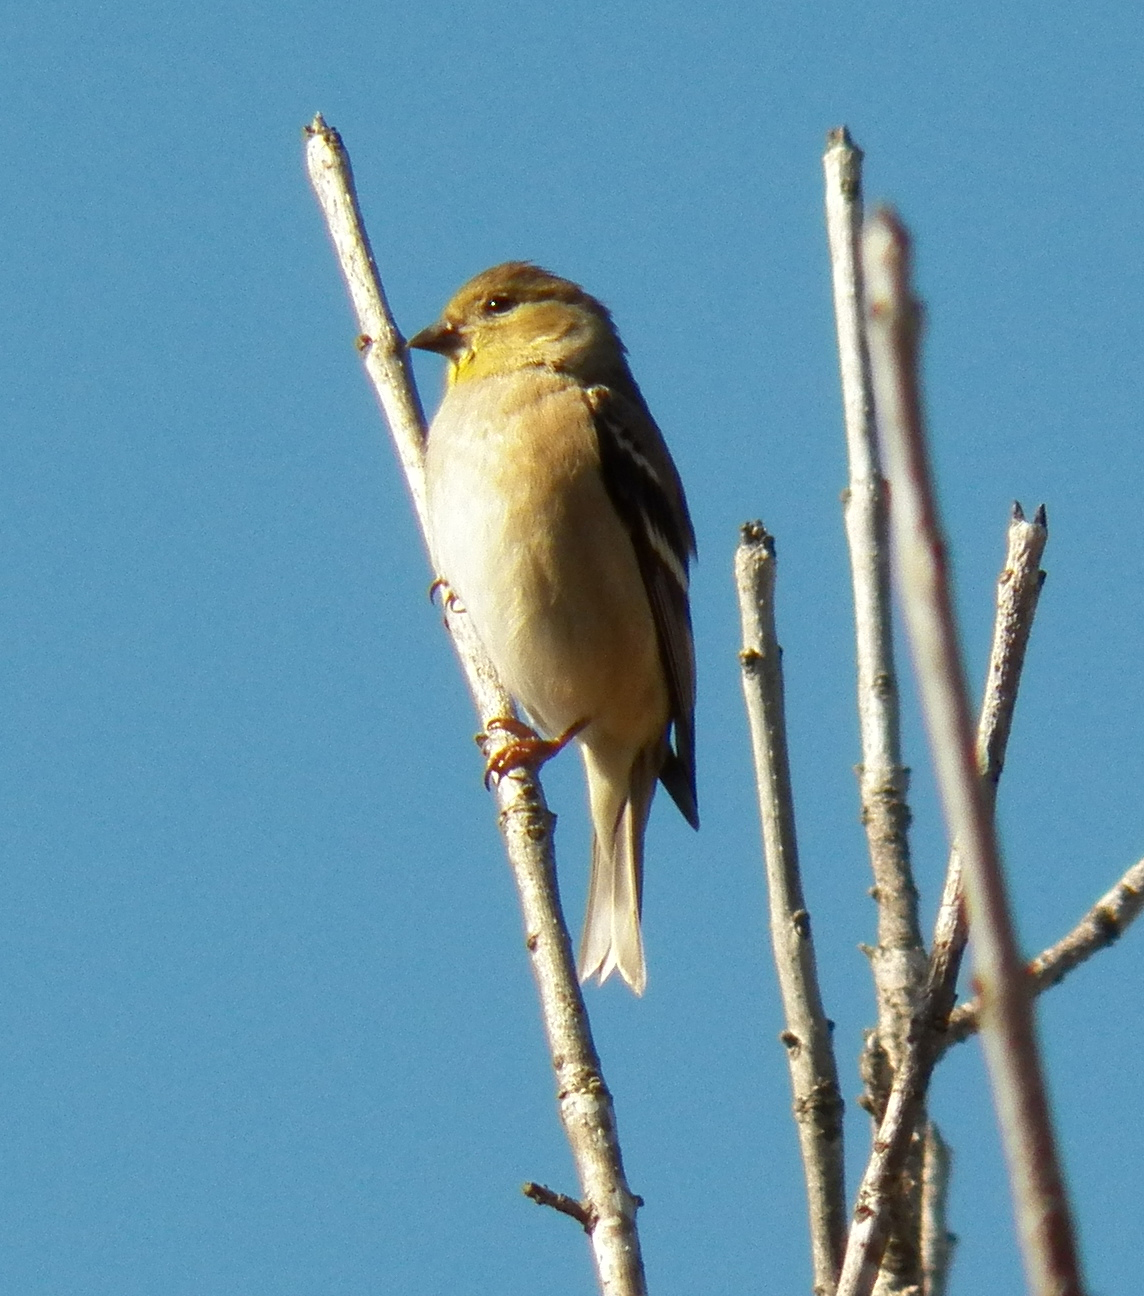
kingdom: Animalia
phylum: Chordata
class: Aves
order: Passeriformes
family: Fringillidae
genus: Spinus
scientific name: Spinus tristis
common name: American goldfinch
